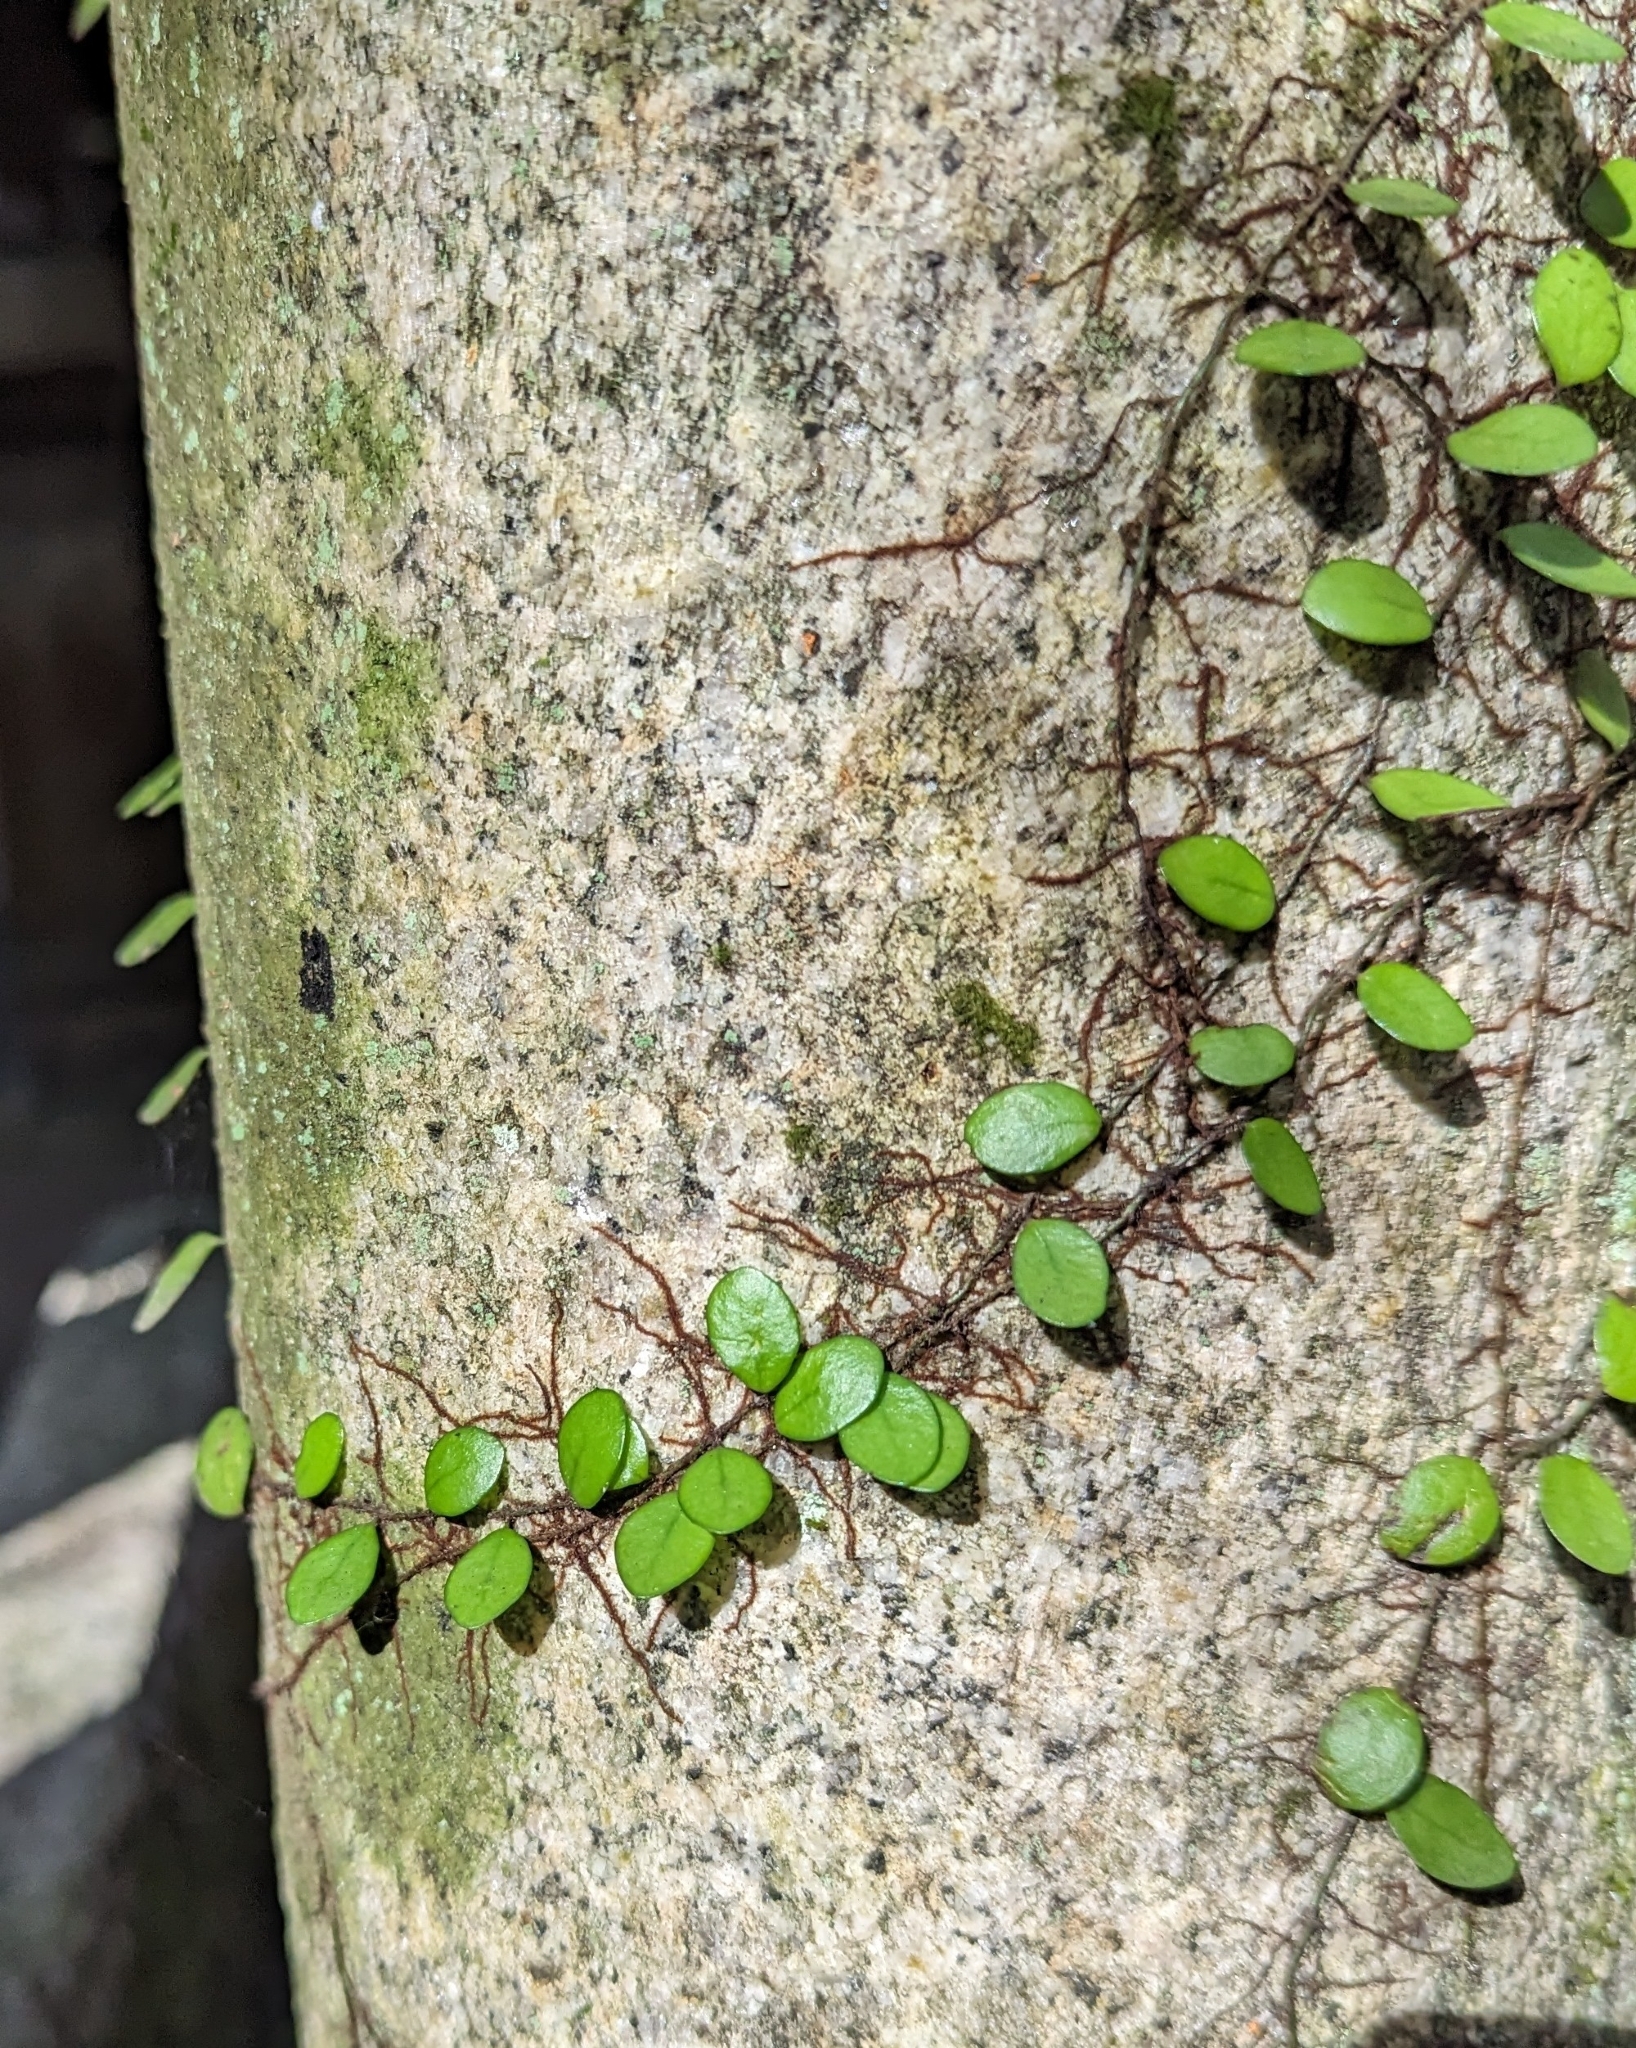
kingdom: Plantae
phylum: Tracheophyta
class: Polypodiopsida
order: Polypodiales
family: Polypodiaceae
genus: Lepisorus
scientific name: Lepisorus microphyllus
